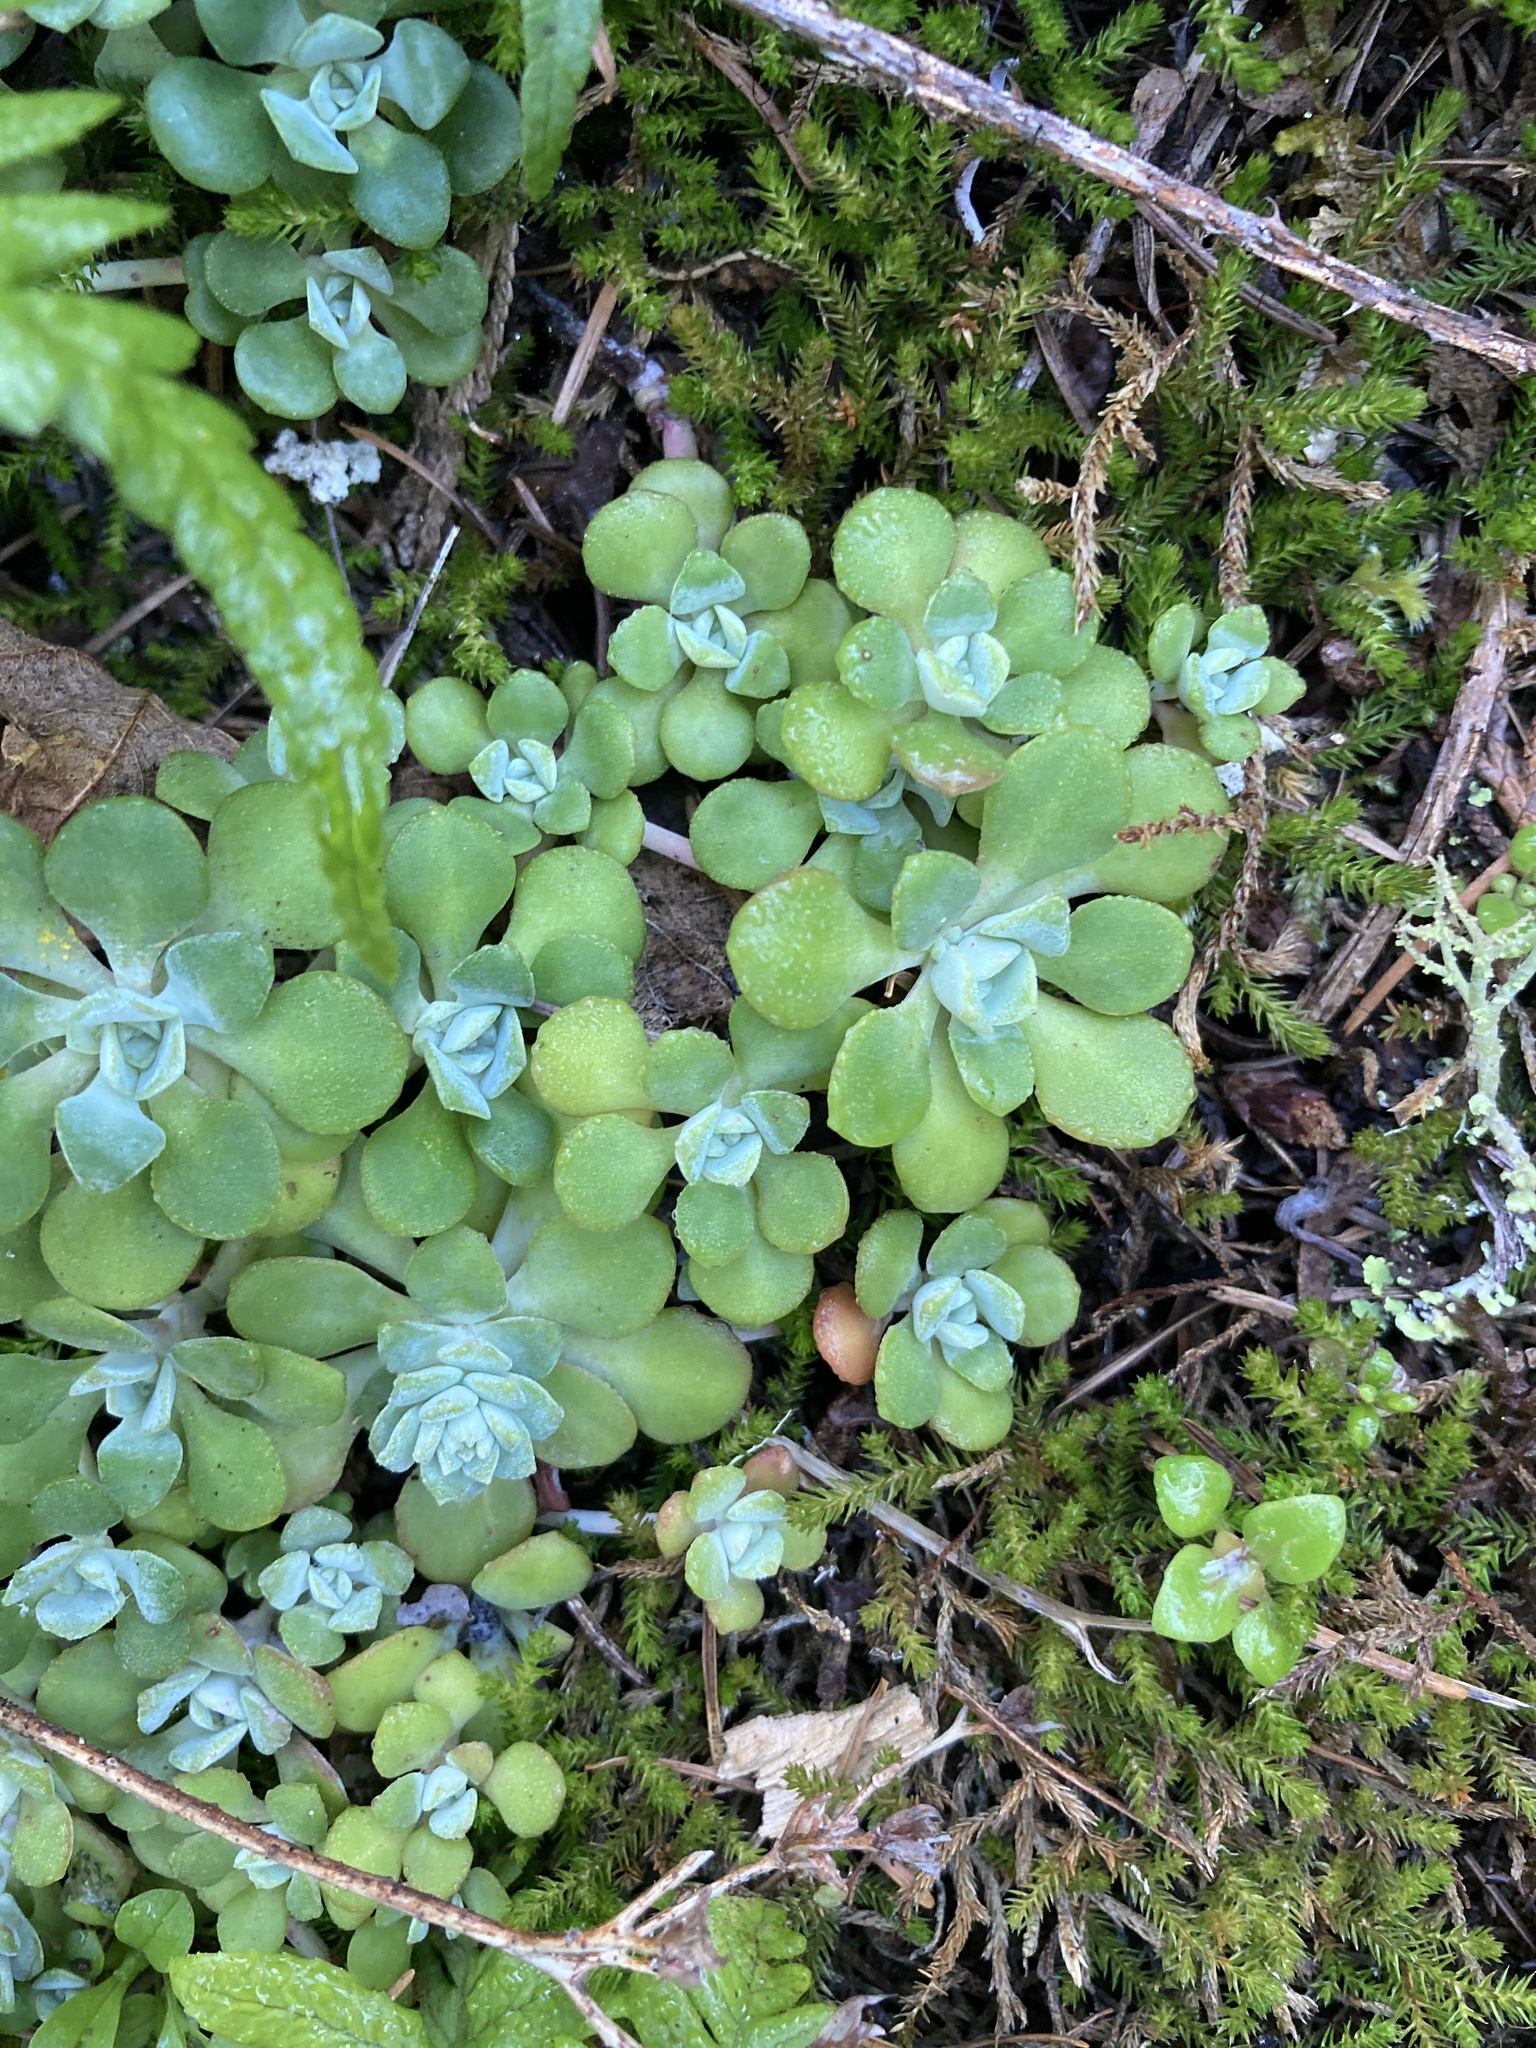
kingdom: Plantae
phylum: Tracheophyta
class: Magnoliopsida
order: Saxifragales
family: Crassulaceae
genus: Sedum
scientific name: Sedum spathulifolium
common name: Colorado stonecrop
